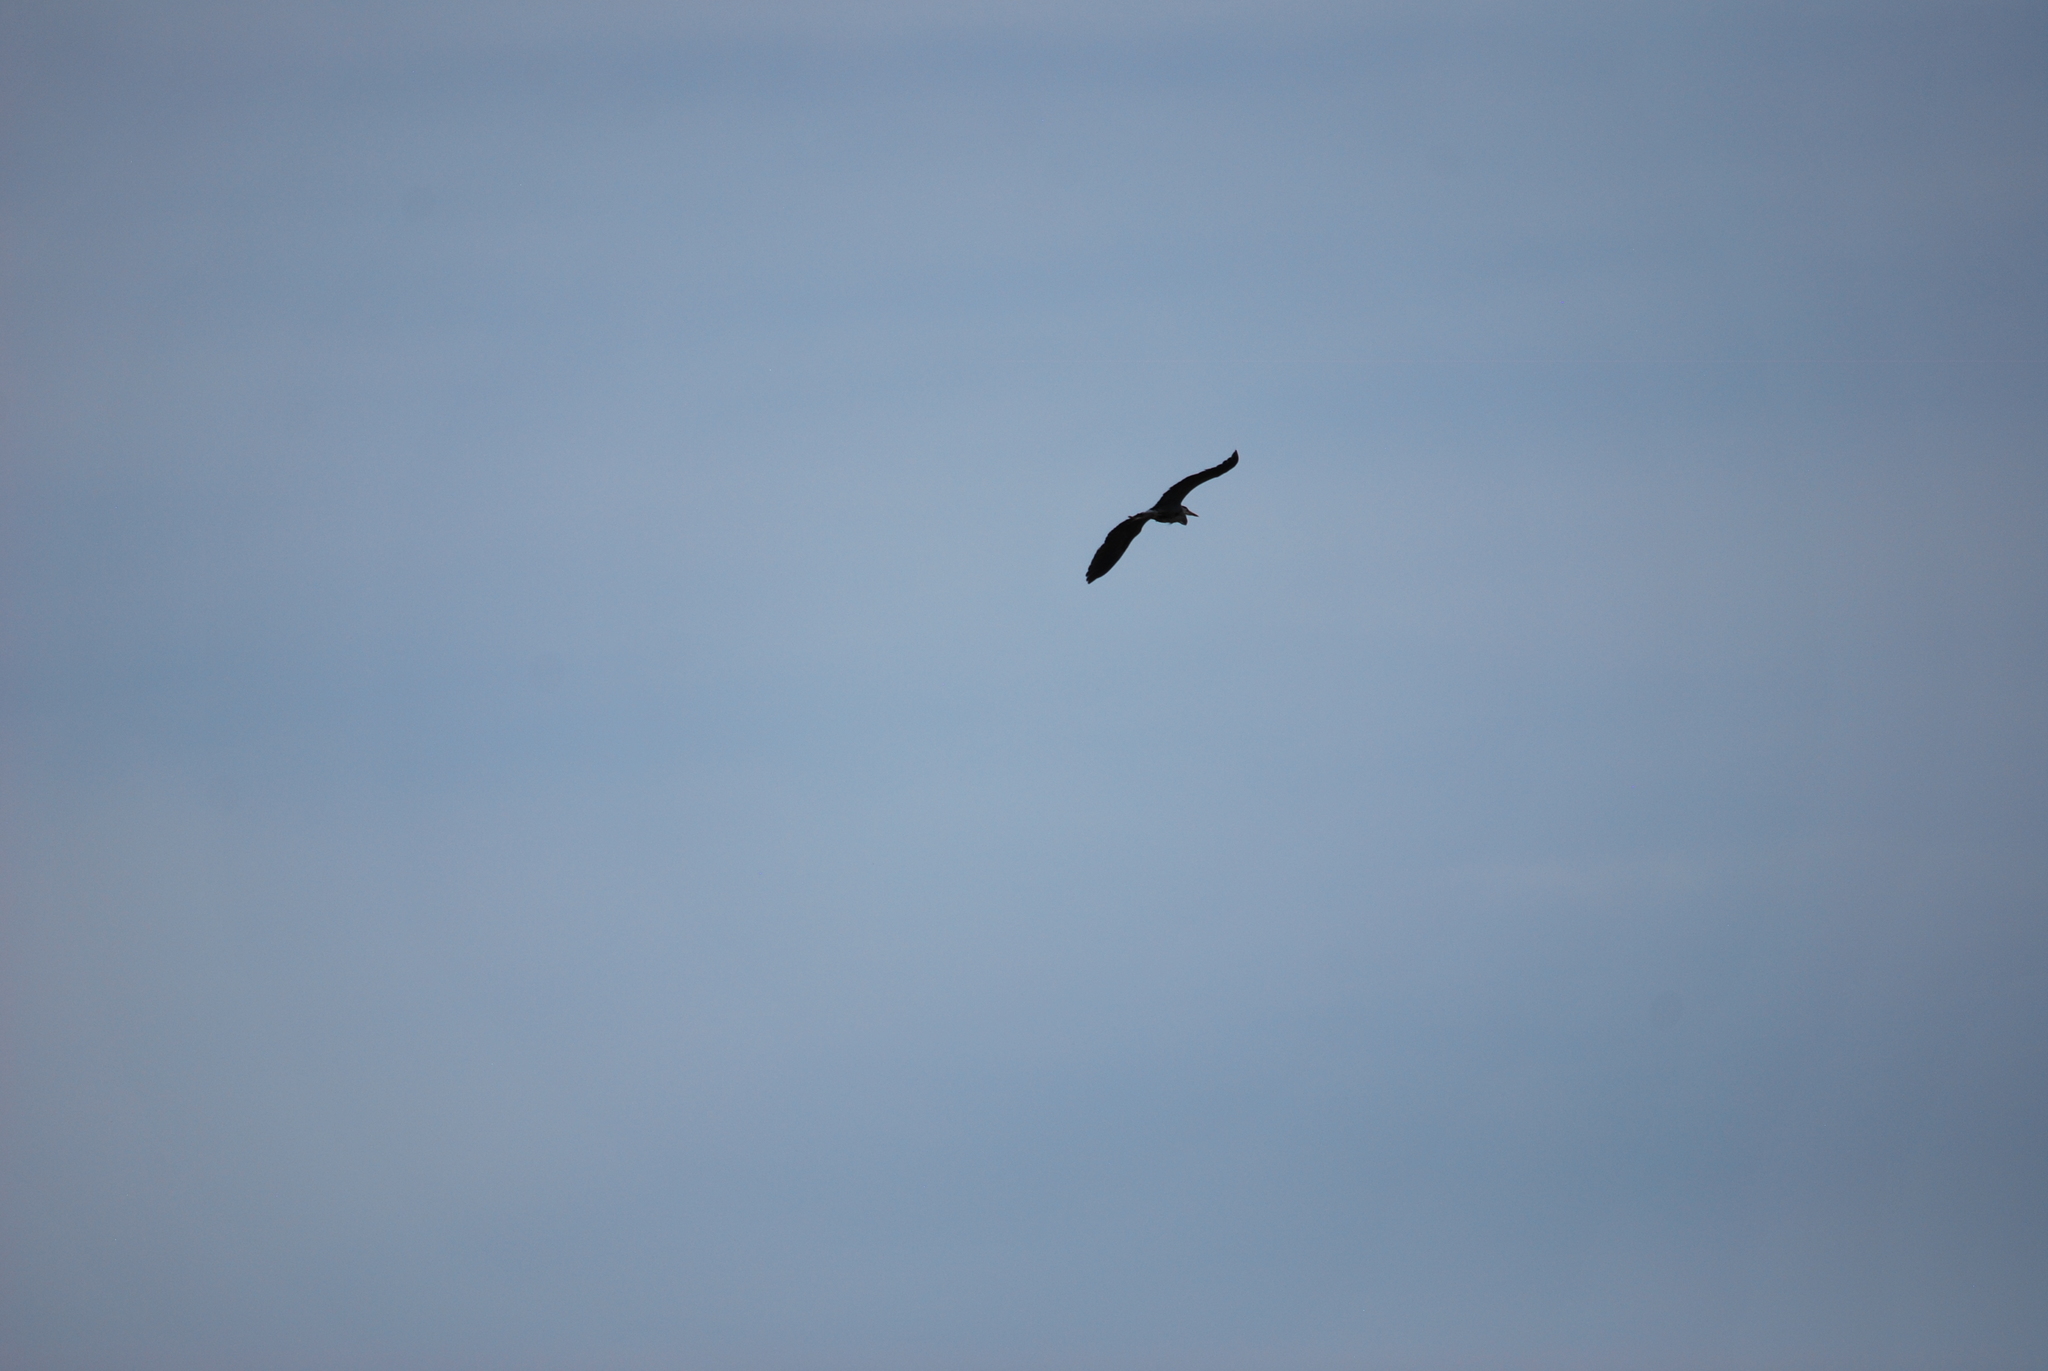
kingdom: Animalia
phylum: Chordata
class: Aves
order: Pelecaniformes
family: Ardeidae
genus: Ardea
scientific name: Ardea herodias
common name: Great blue heron
